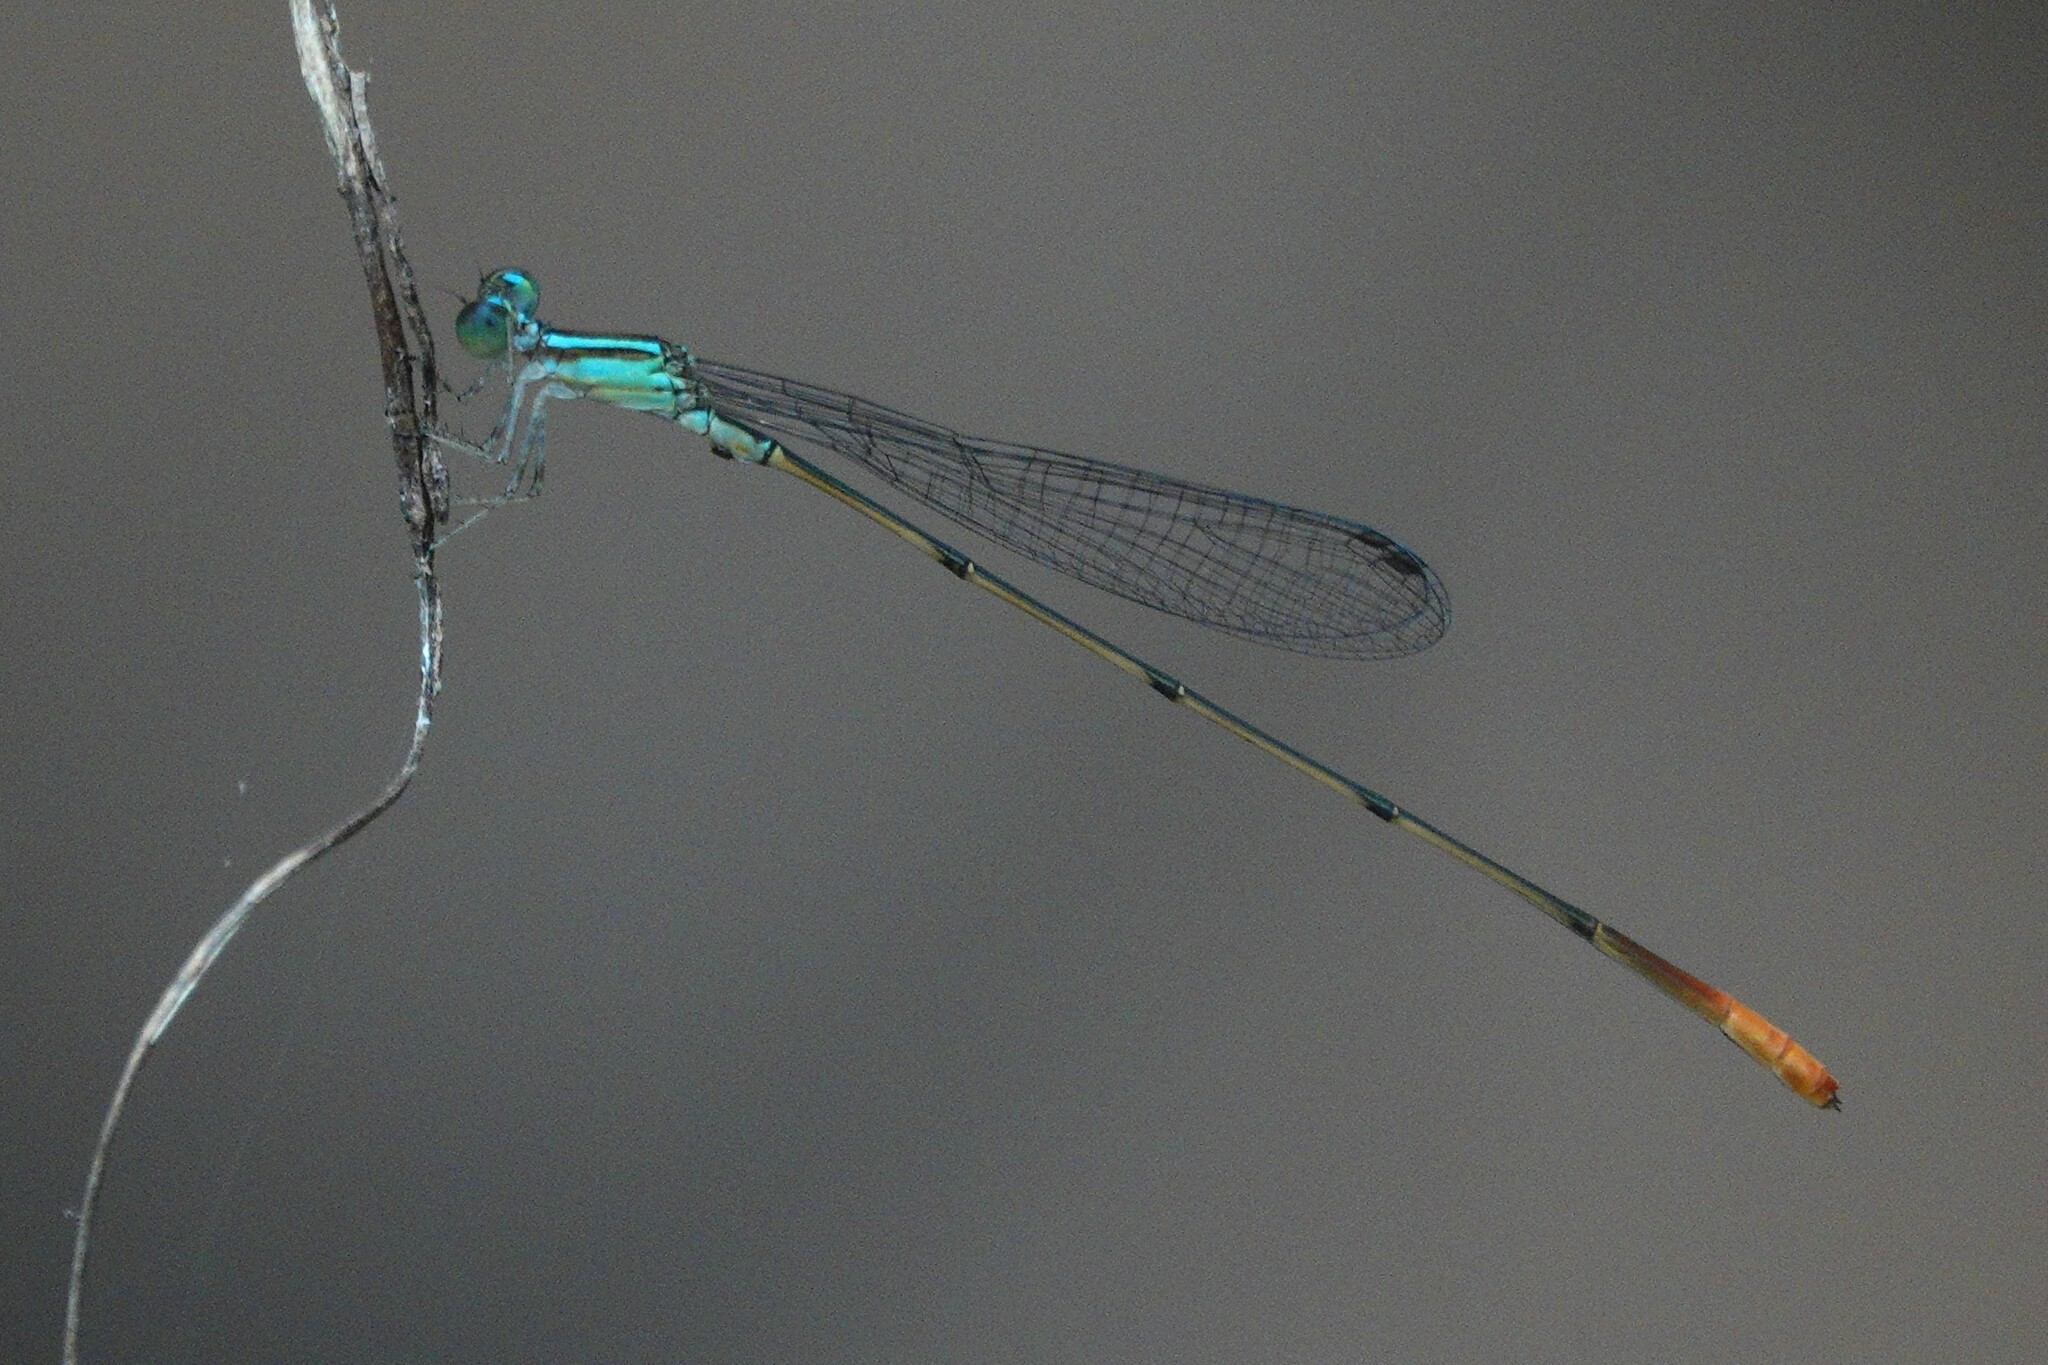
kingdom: Animalia
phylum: Arthropoda
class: Insecta
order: Odonata
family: Coenagrionidae
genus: Leptobasis
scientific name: Leptobasis lucifer
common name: Lucifer swampdamsel
